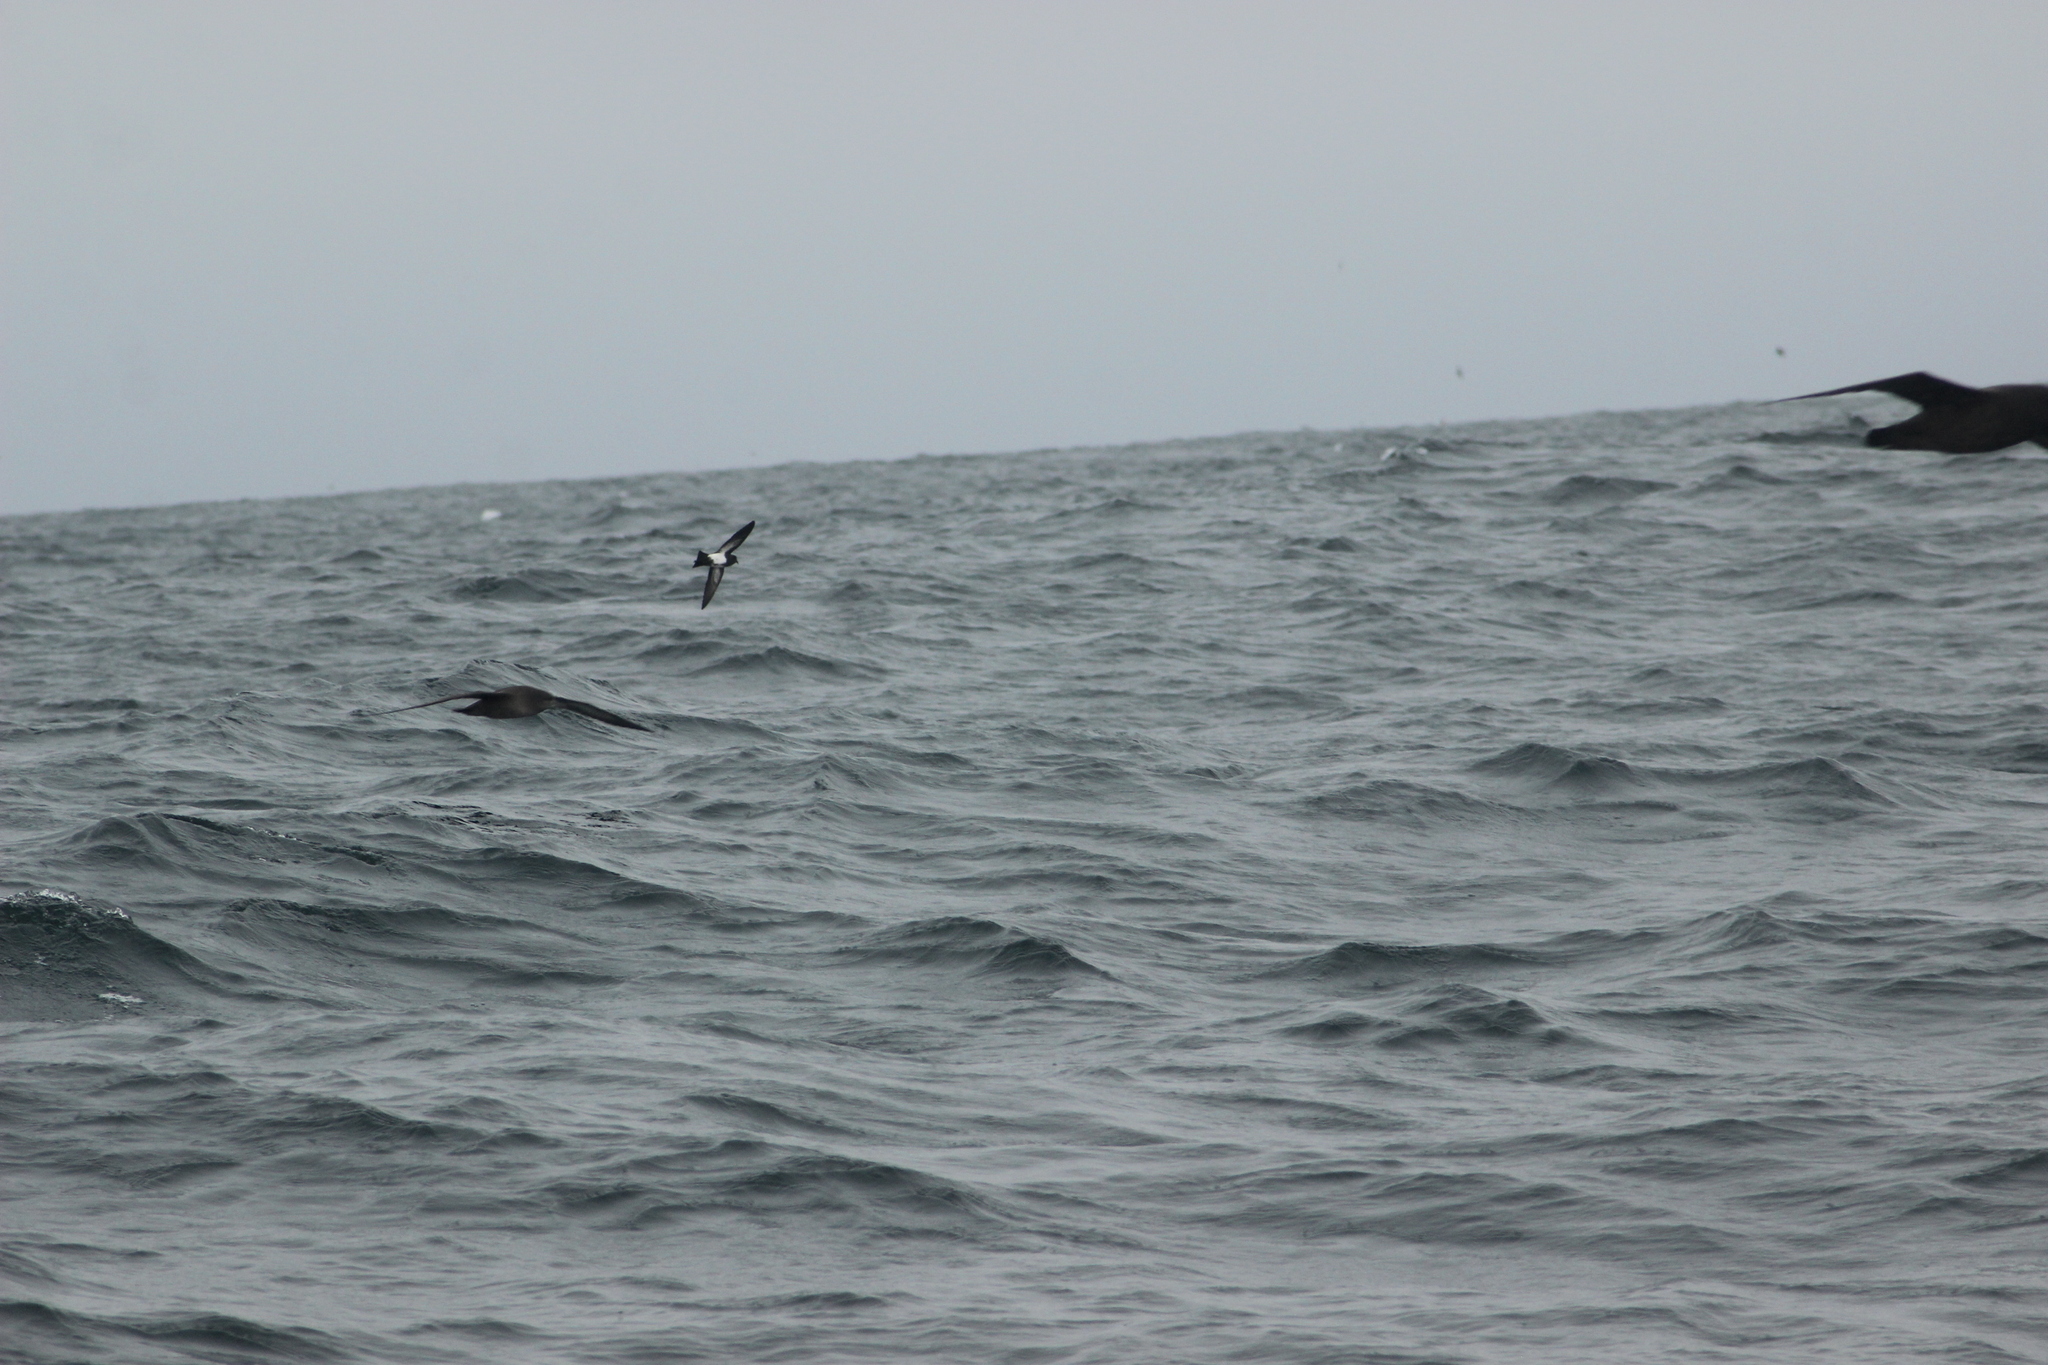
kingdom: Animalia
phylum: Chordata
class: Aves
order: Procellariiformes
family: Hydrobatidae
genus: Fregetta
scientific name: Fregetta tropica
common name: Black-bellied storm-petrel
